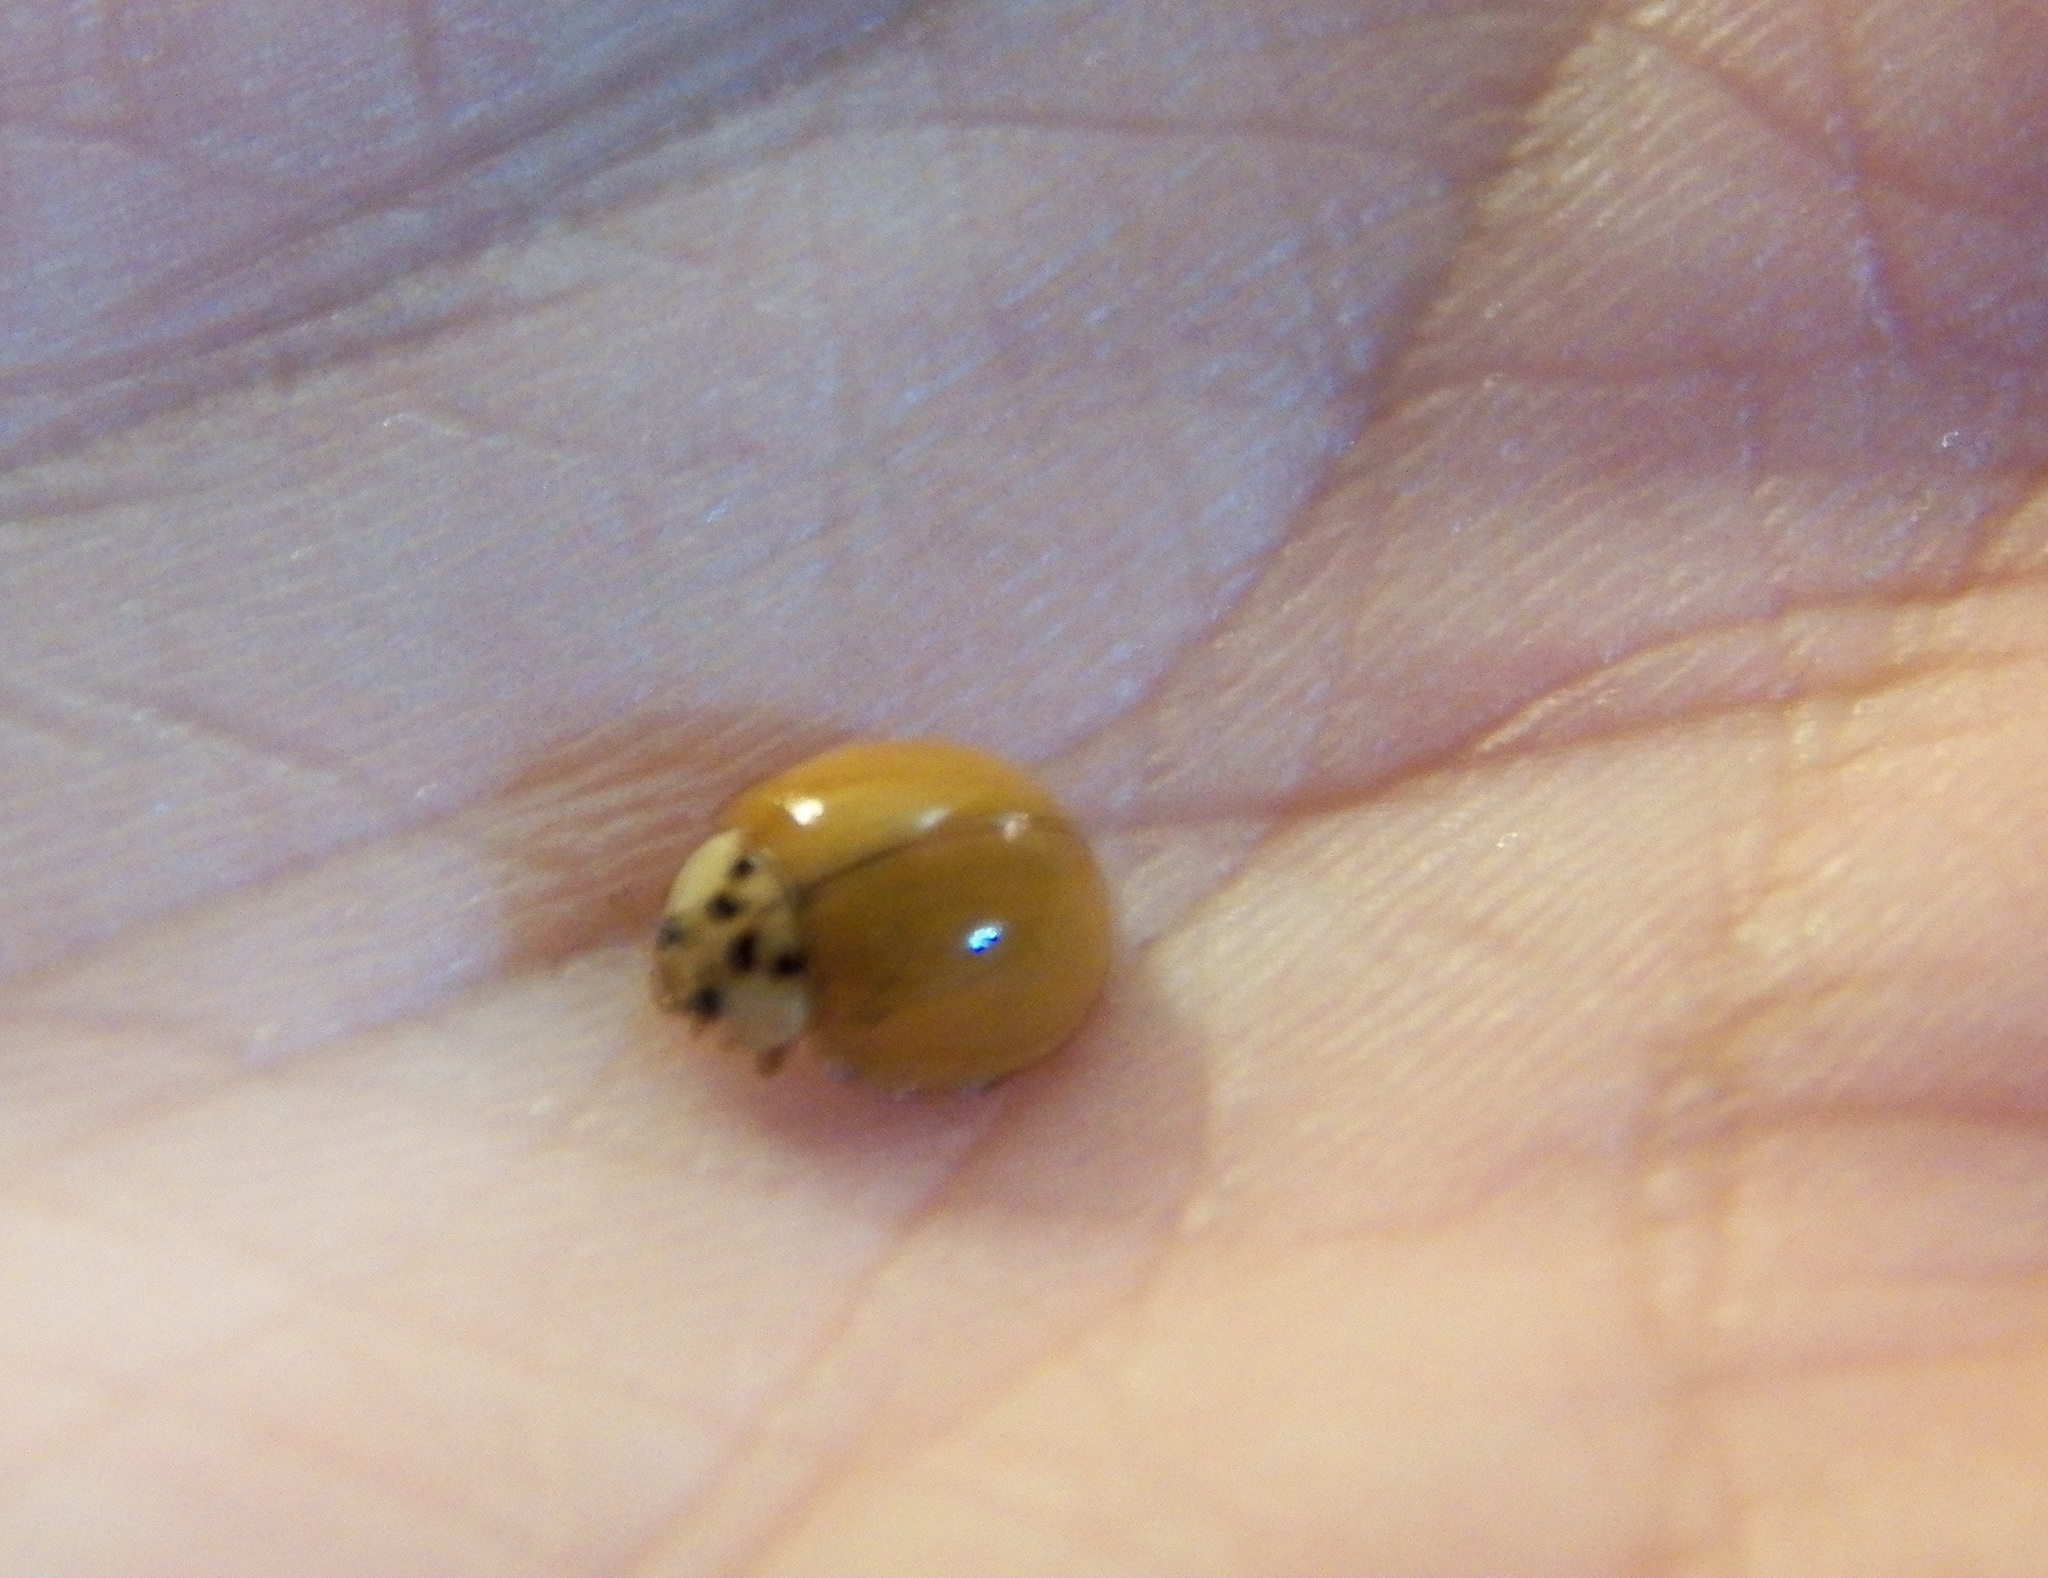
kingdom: Animalia
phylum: Arthropoda
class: Insecta
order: Coleoptera
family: Coccinellidae
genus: Harmonia
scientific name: Harmonia axyridis
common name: Harlequin ladybird
